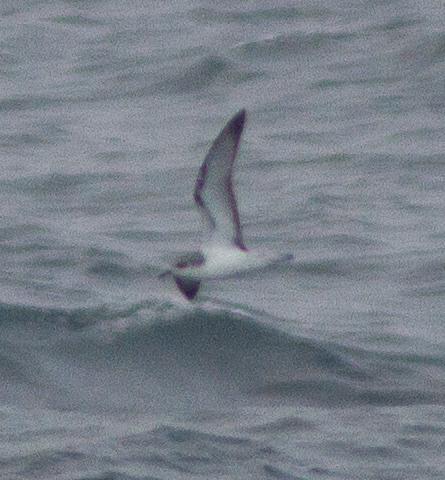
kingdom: Animalia
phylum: Chordata
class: Aves
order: Procellariiformes
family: Procellariidae
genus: Pterodroma
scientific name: Pterodroma cookii
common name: Cook's petrel
